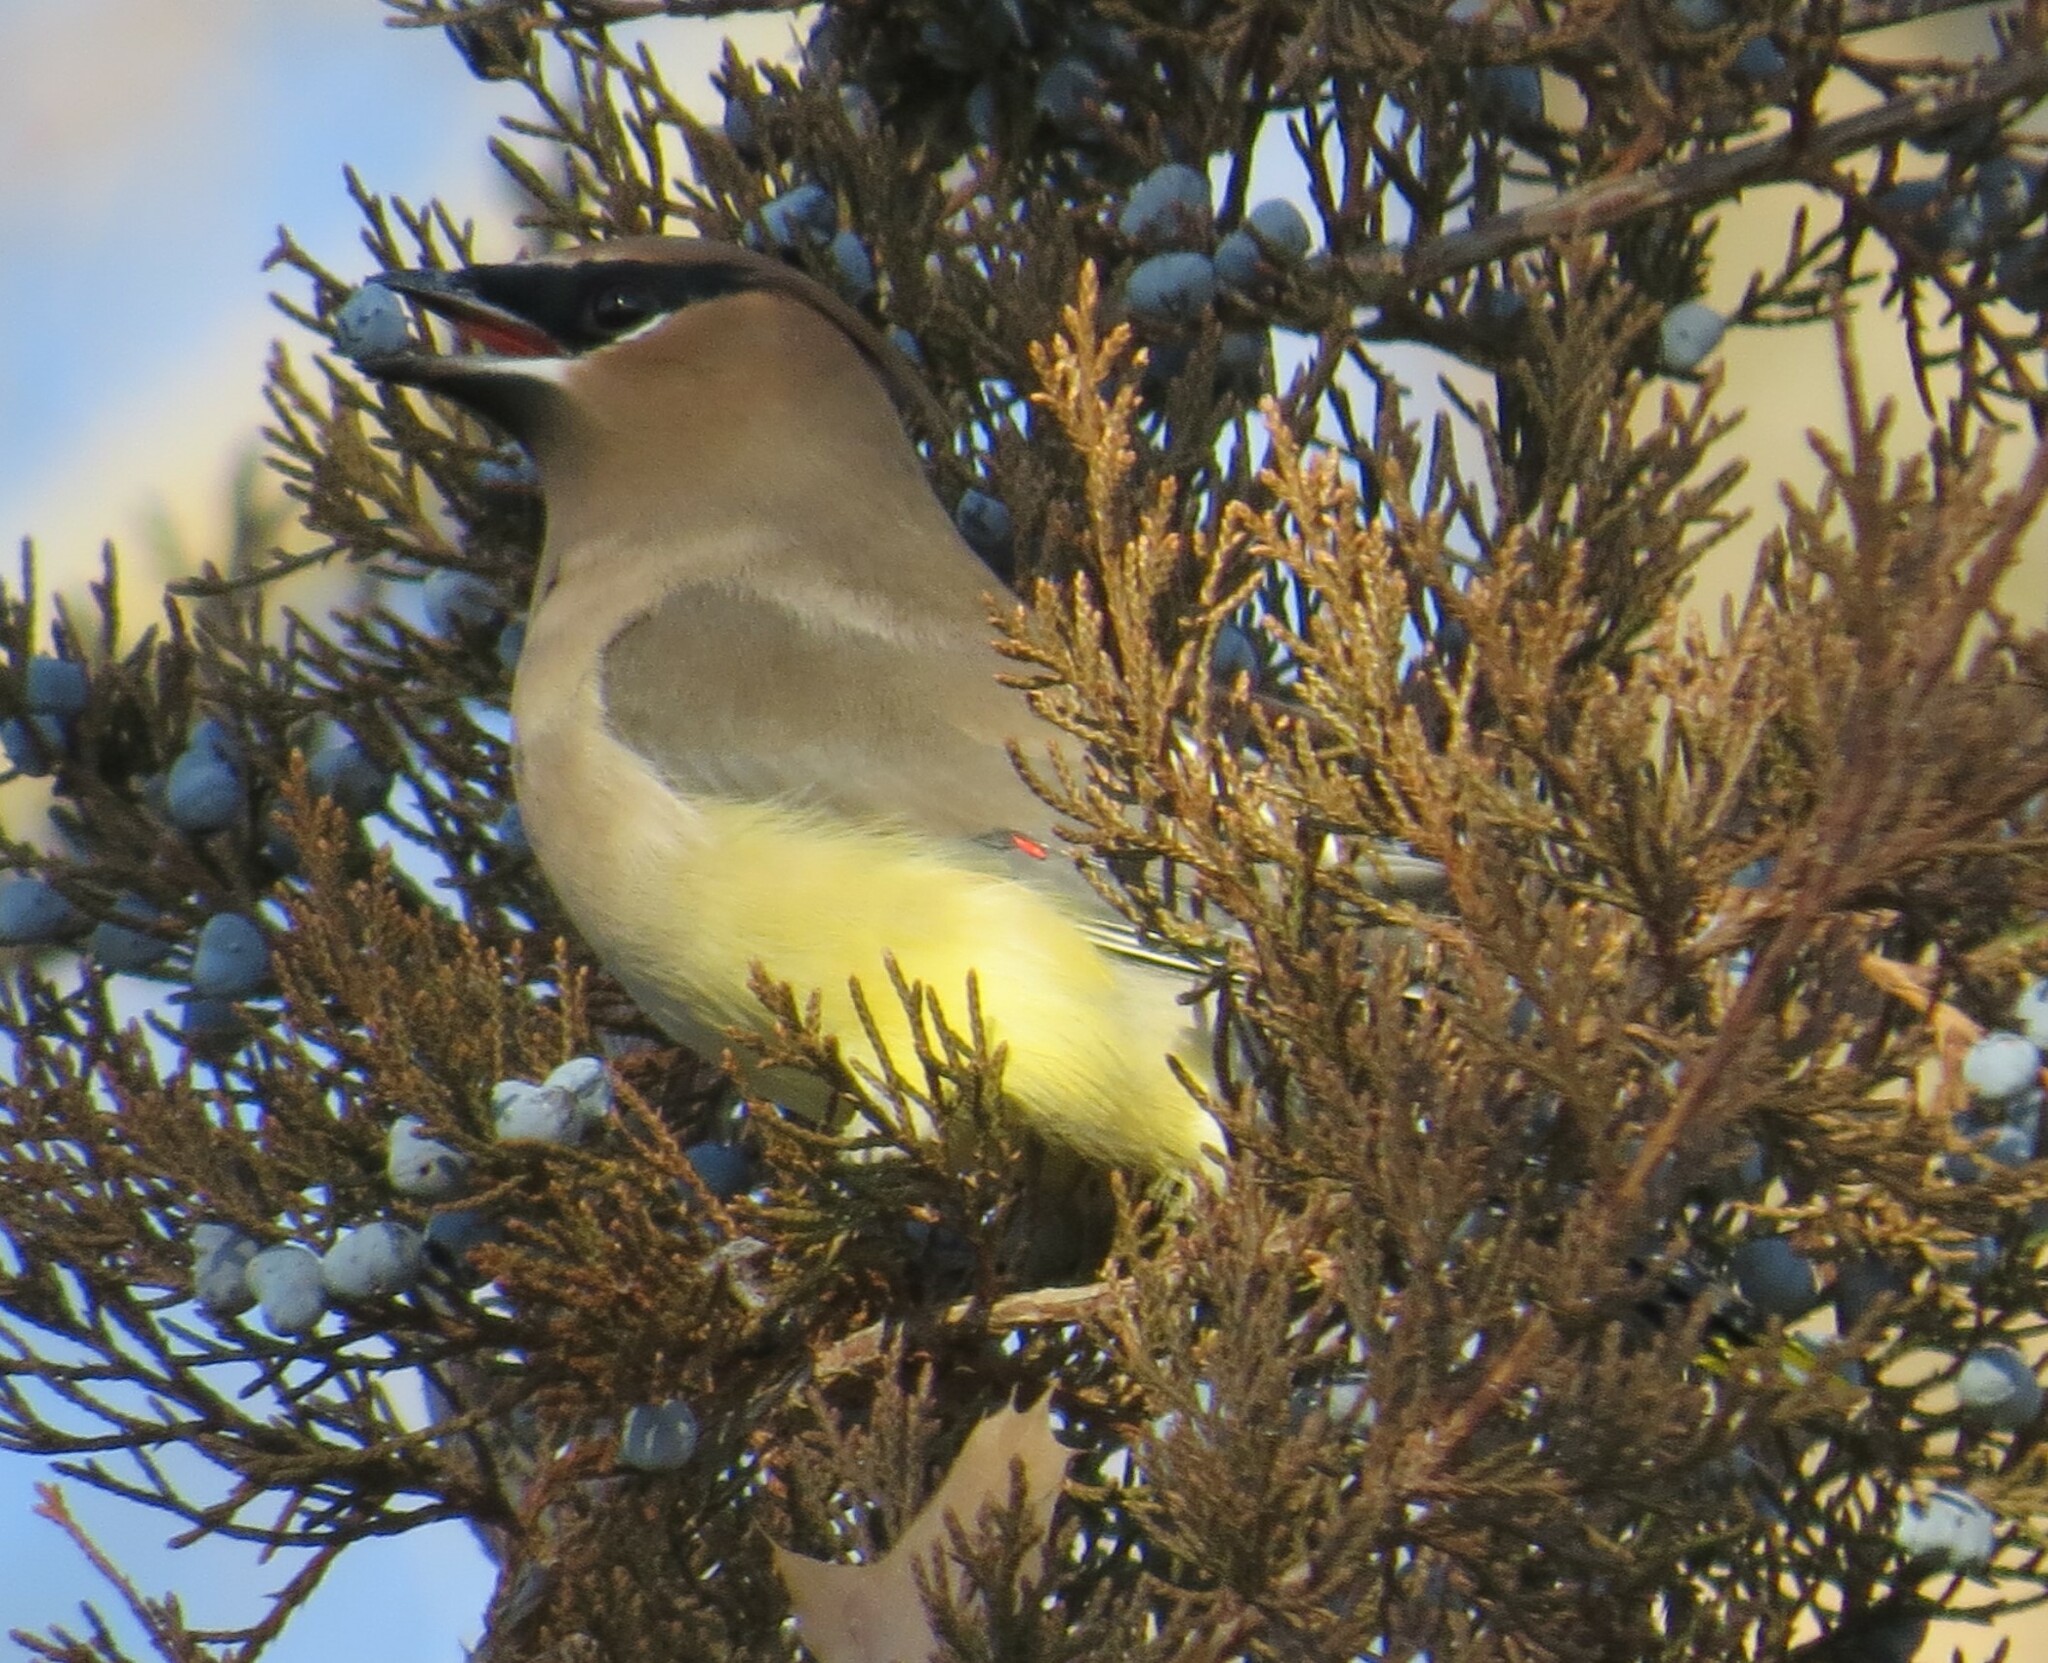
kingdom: Animalia
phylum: Chordata
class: Aves
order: Passeriformes
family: Bombycillidae
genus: Bombycilla
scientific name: Bombycilla cedrorum
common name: Cedar waxwing
